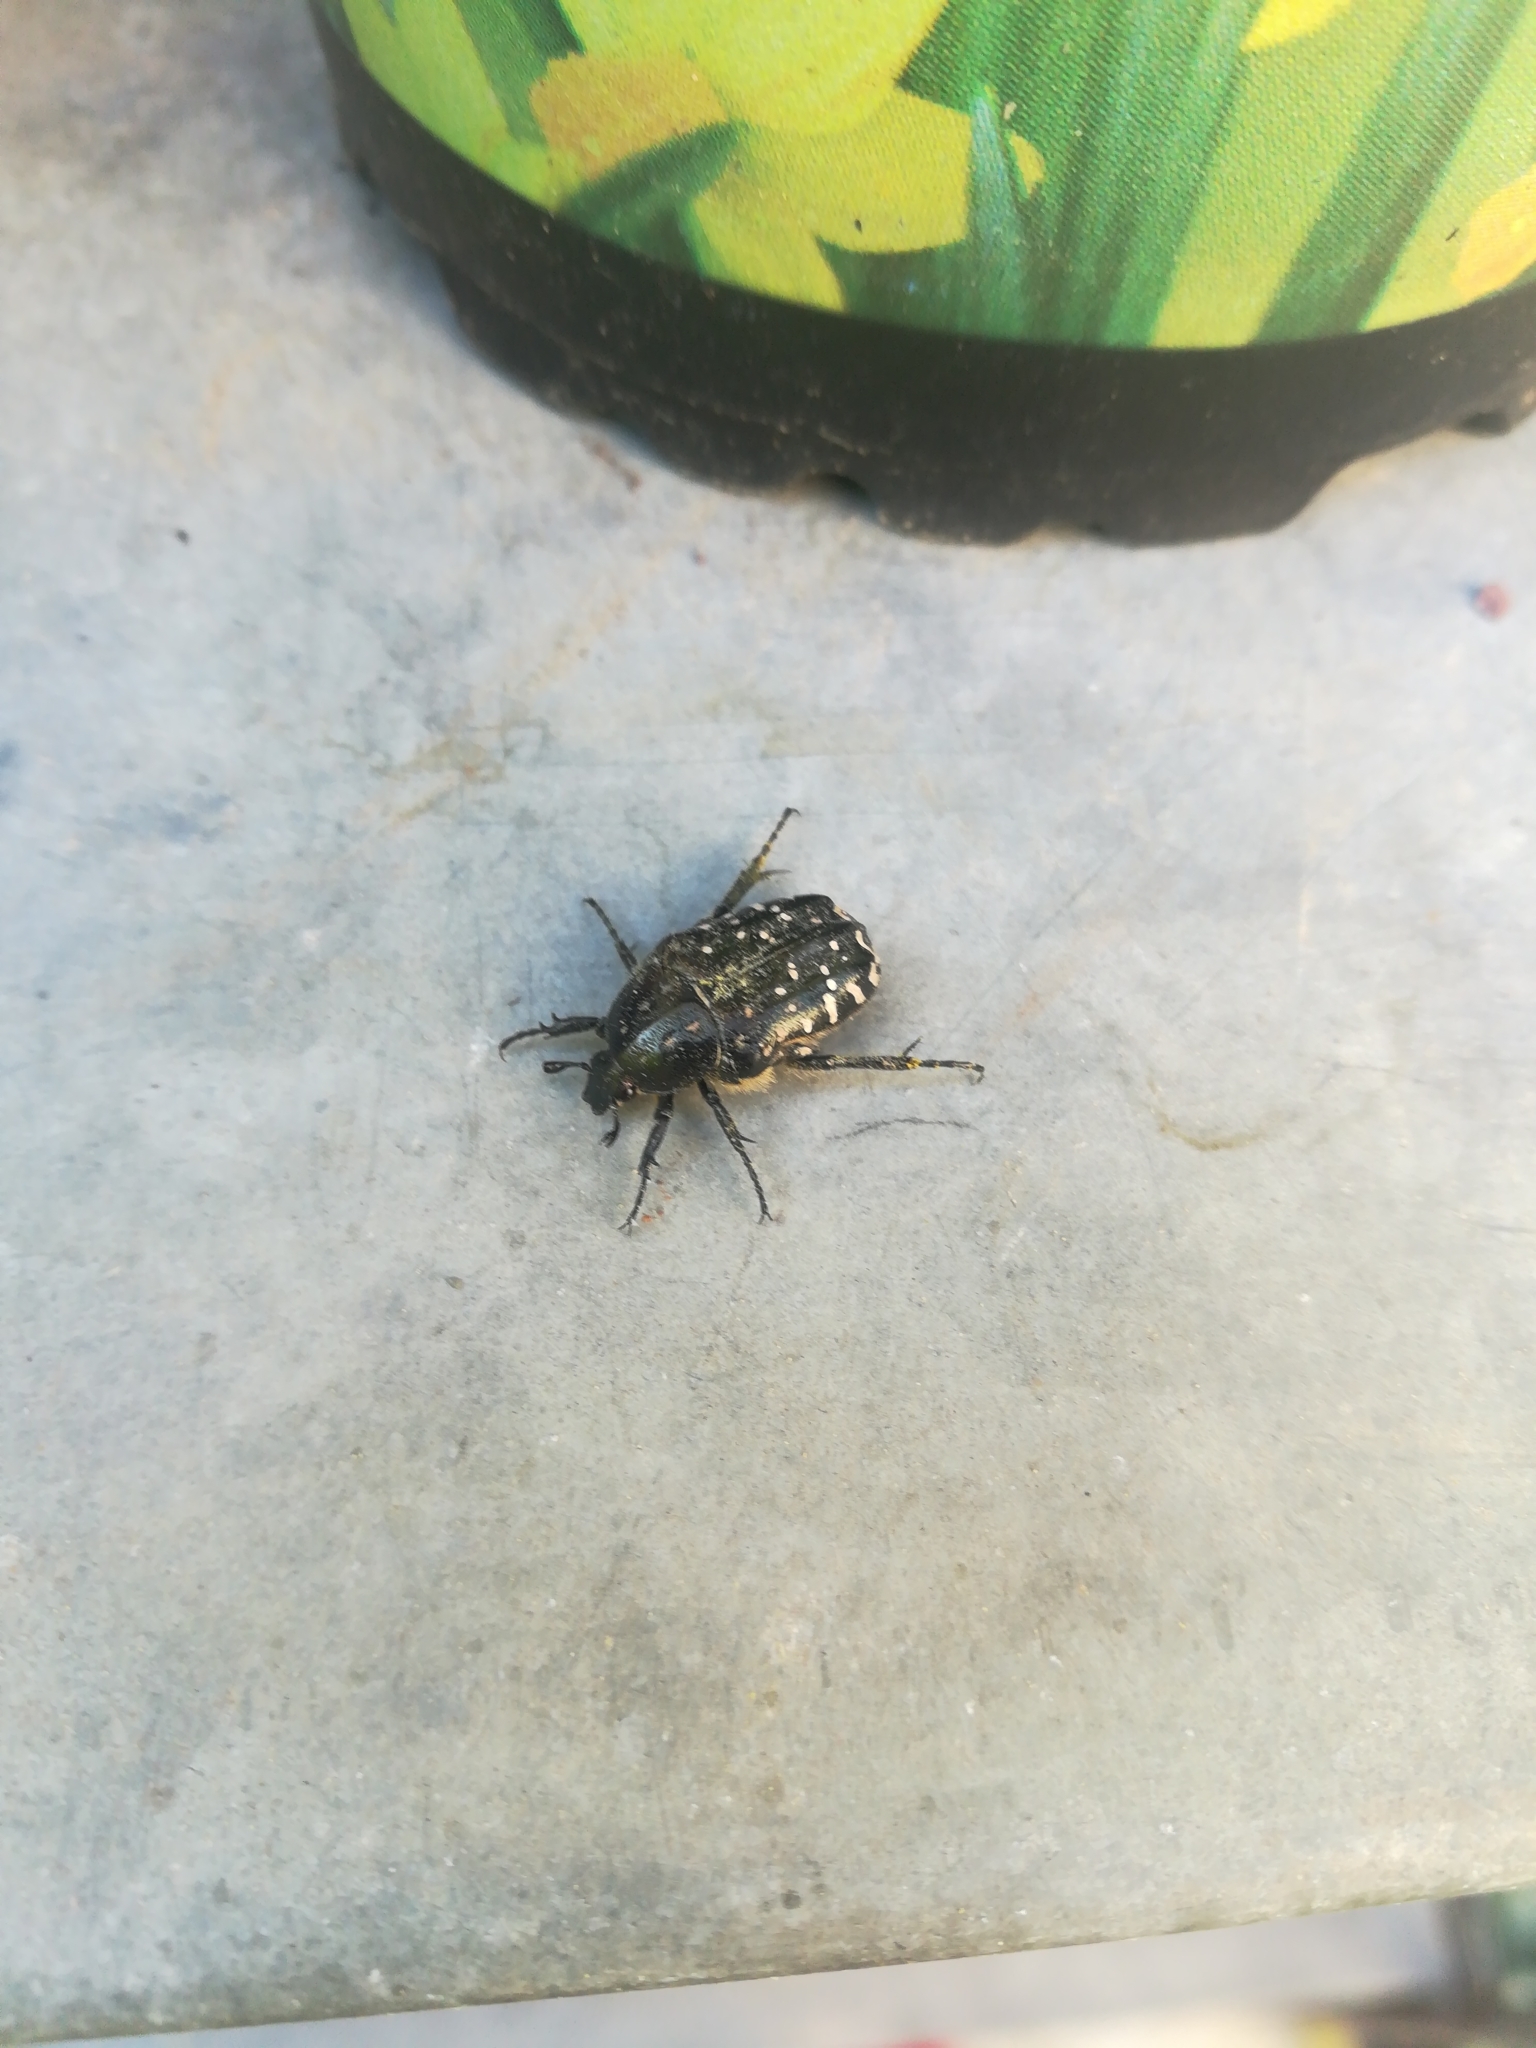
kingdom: Animalia
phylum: Arthropoda
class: Insecta
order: Coleoptera
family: Scarabaeidae
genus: Oxythyrea
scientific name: Oxythyrea funesta
